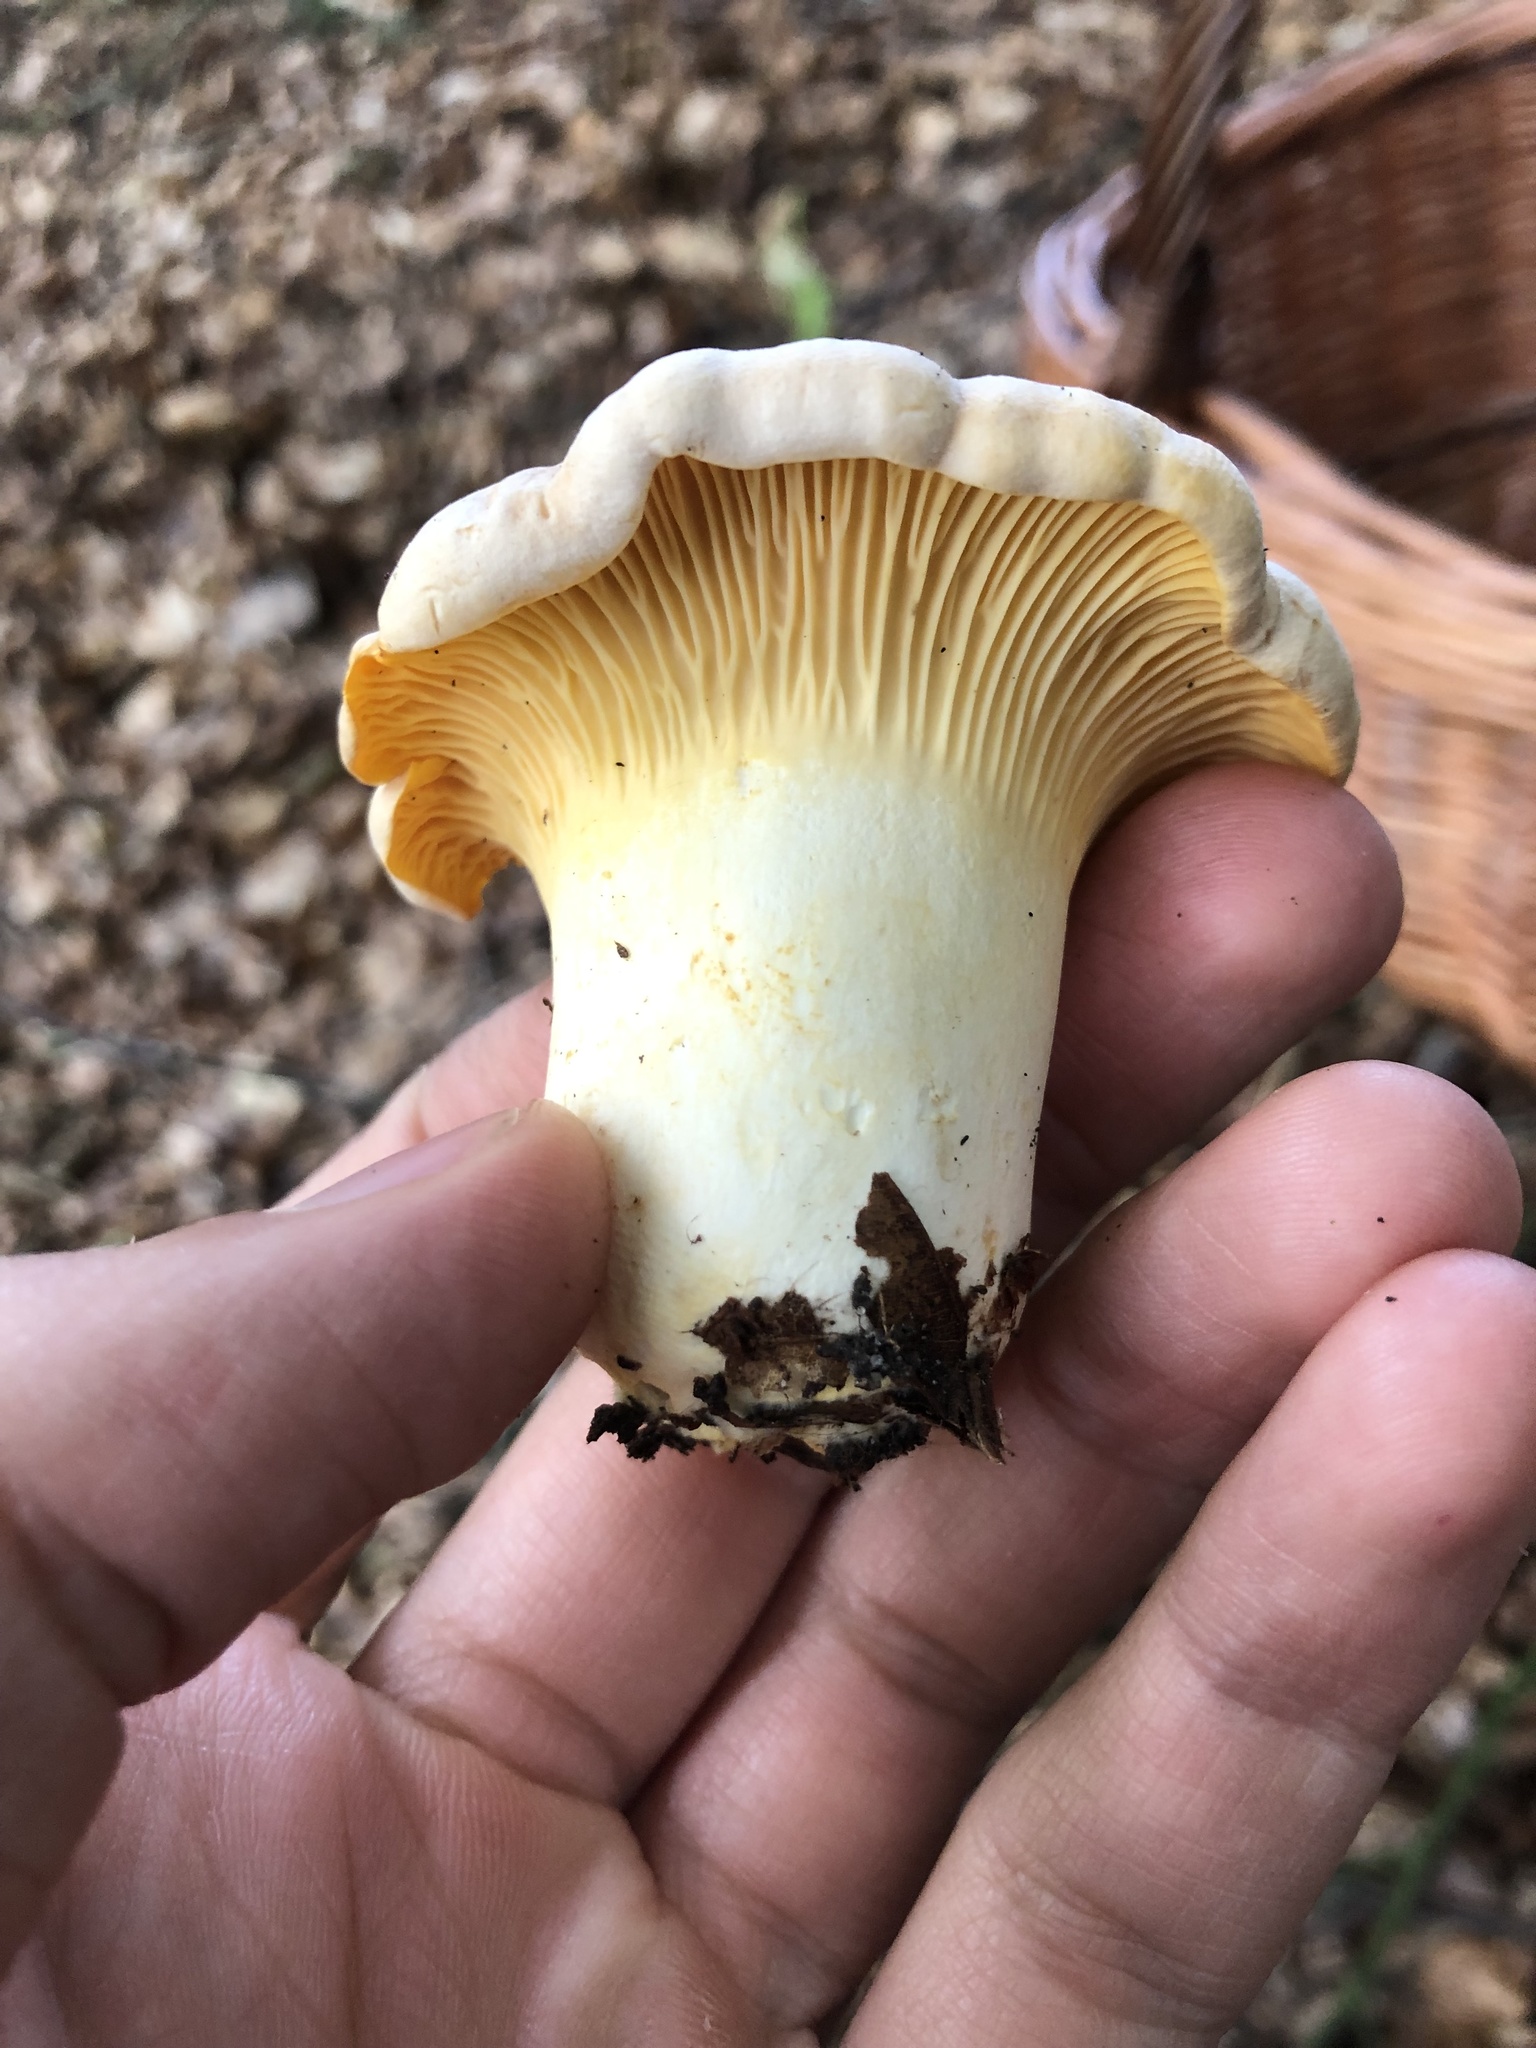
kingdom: Fungi
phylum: Basidiomycota
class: Agaricomycetes
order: Cantharellales
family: Hydnaceae
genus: Cantharellus
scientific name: Cantharellus pallens
